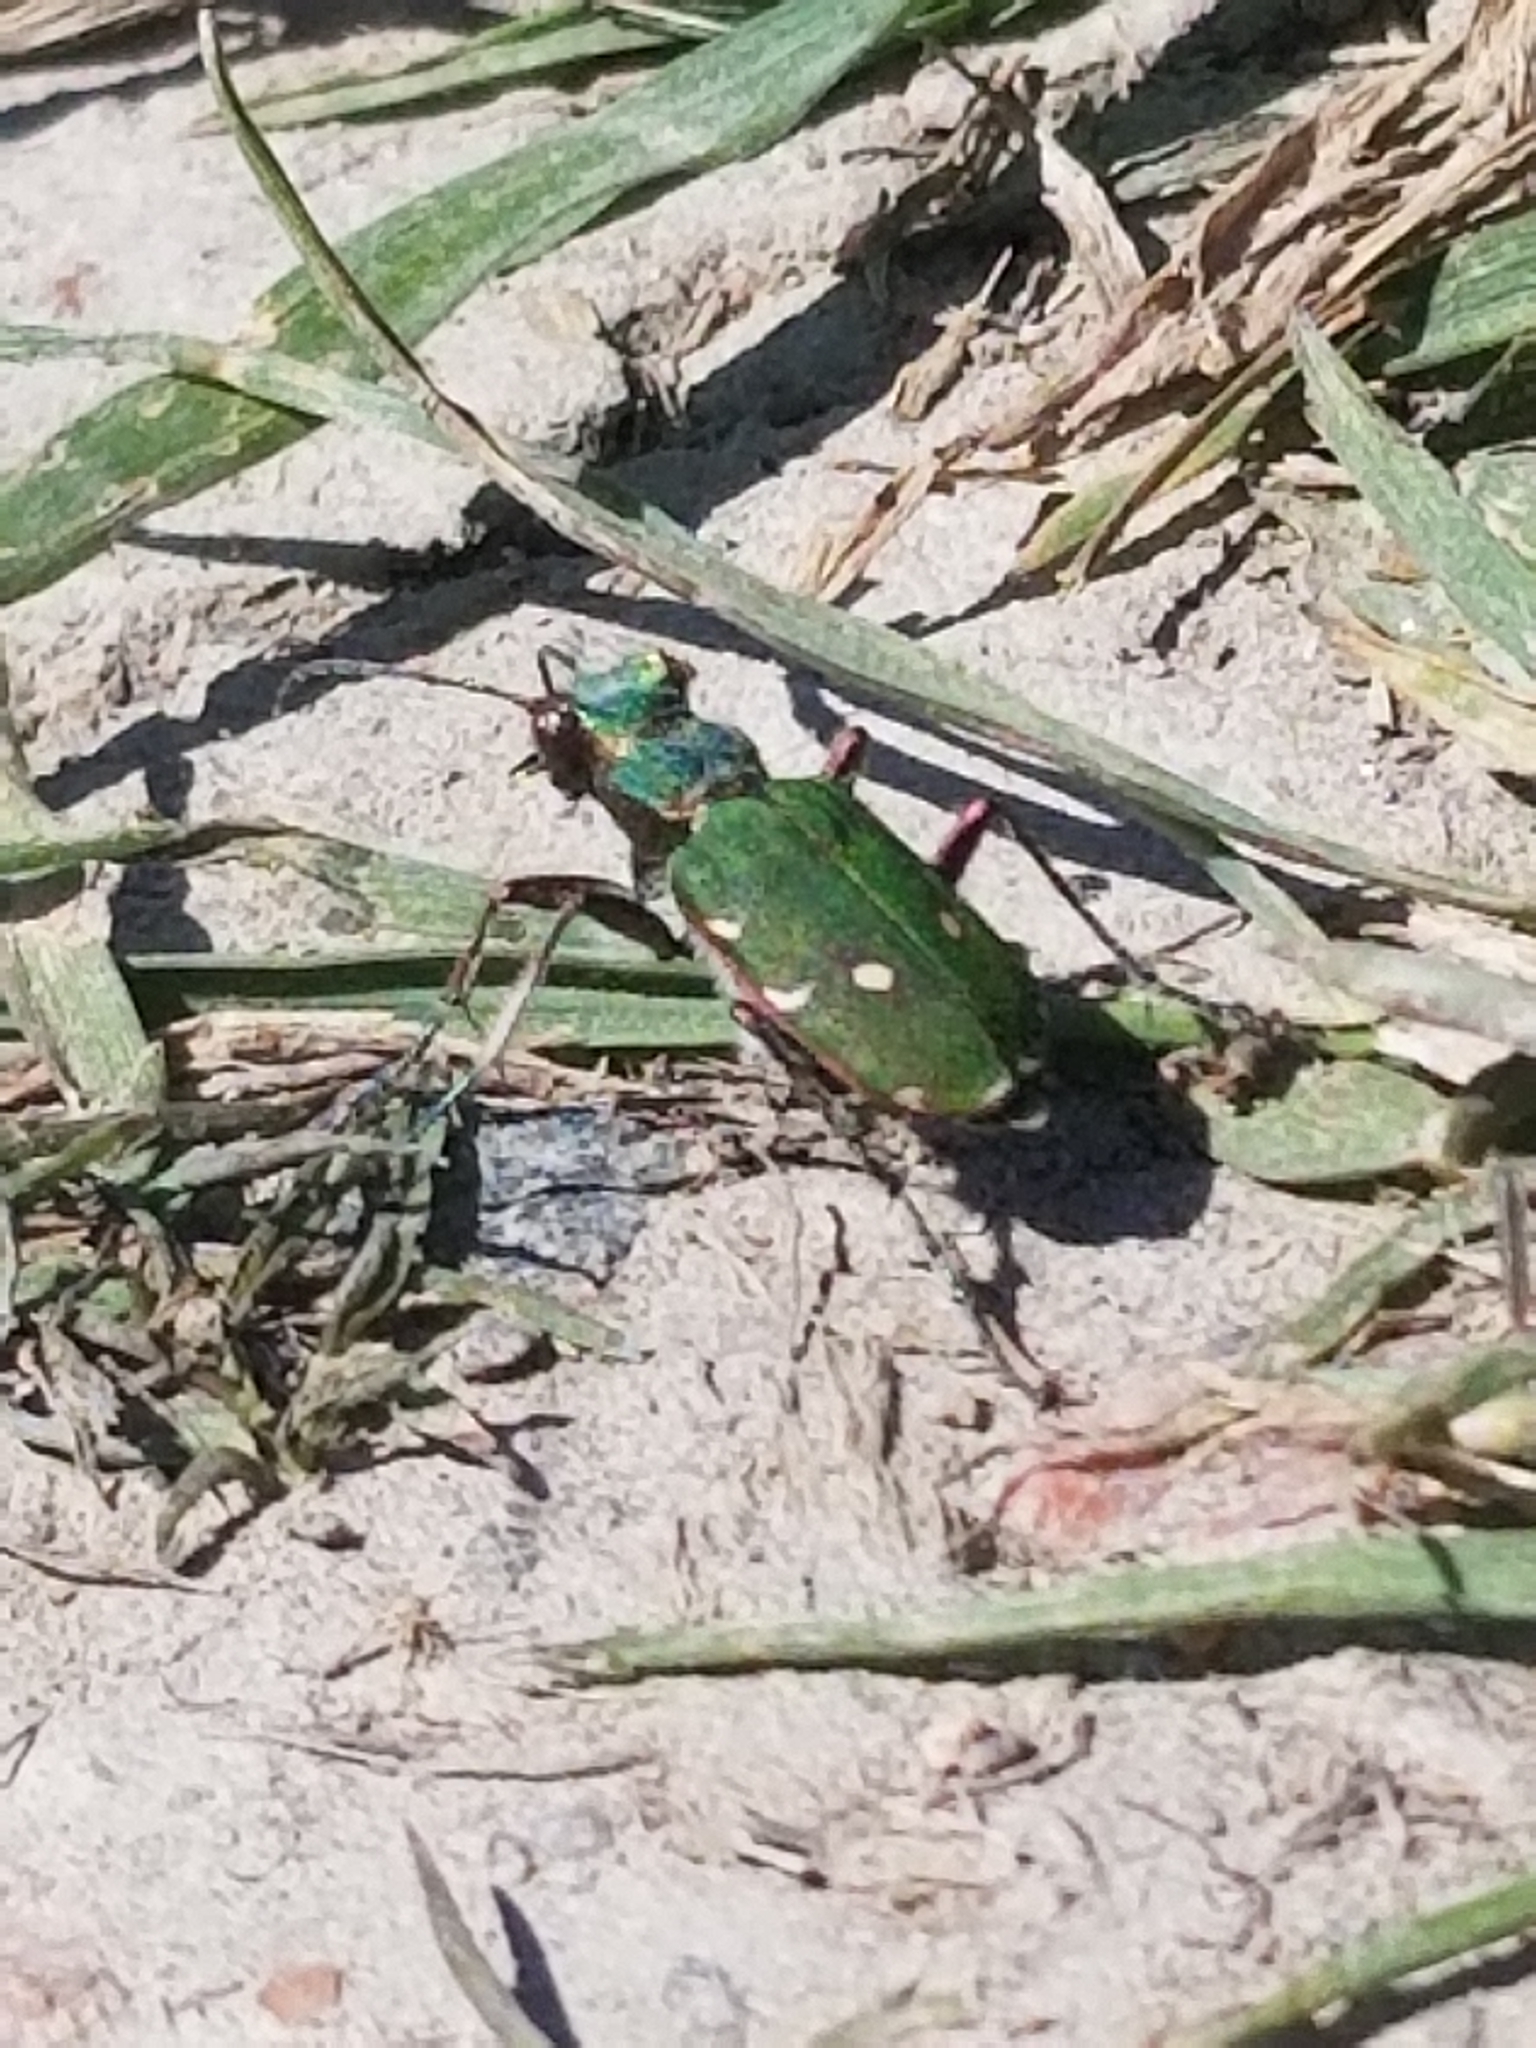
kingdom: Animalia
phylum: Arthropoda
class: Insecta
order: Coleoptera
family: Carabidae
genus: Cicindela
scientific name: Cicindela campestris
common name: Common tiger beetle
